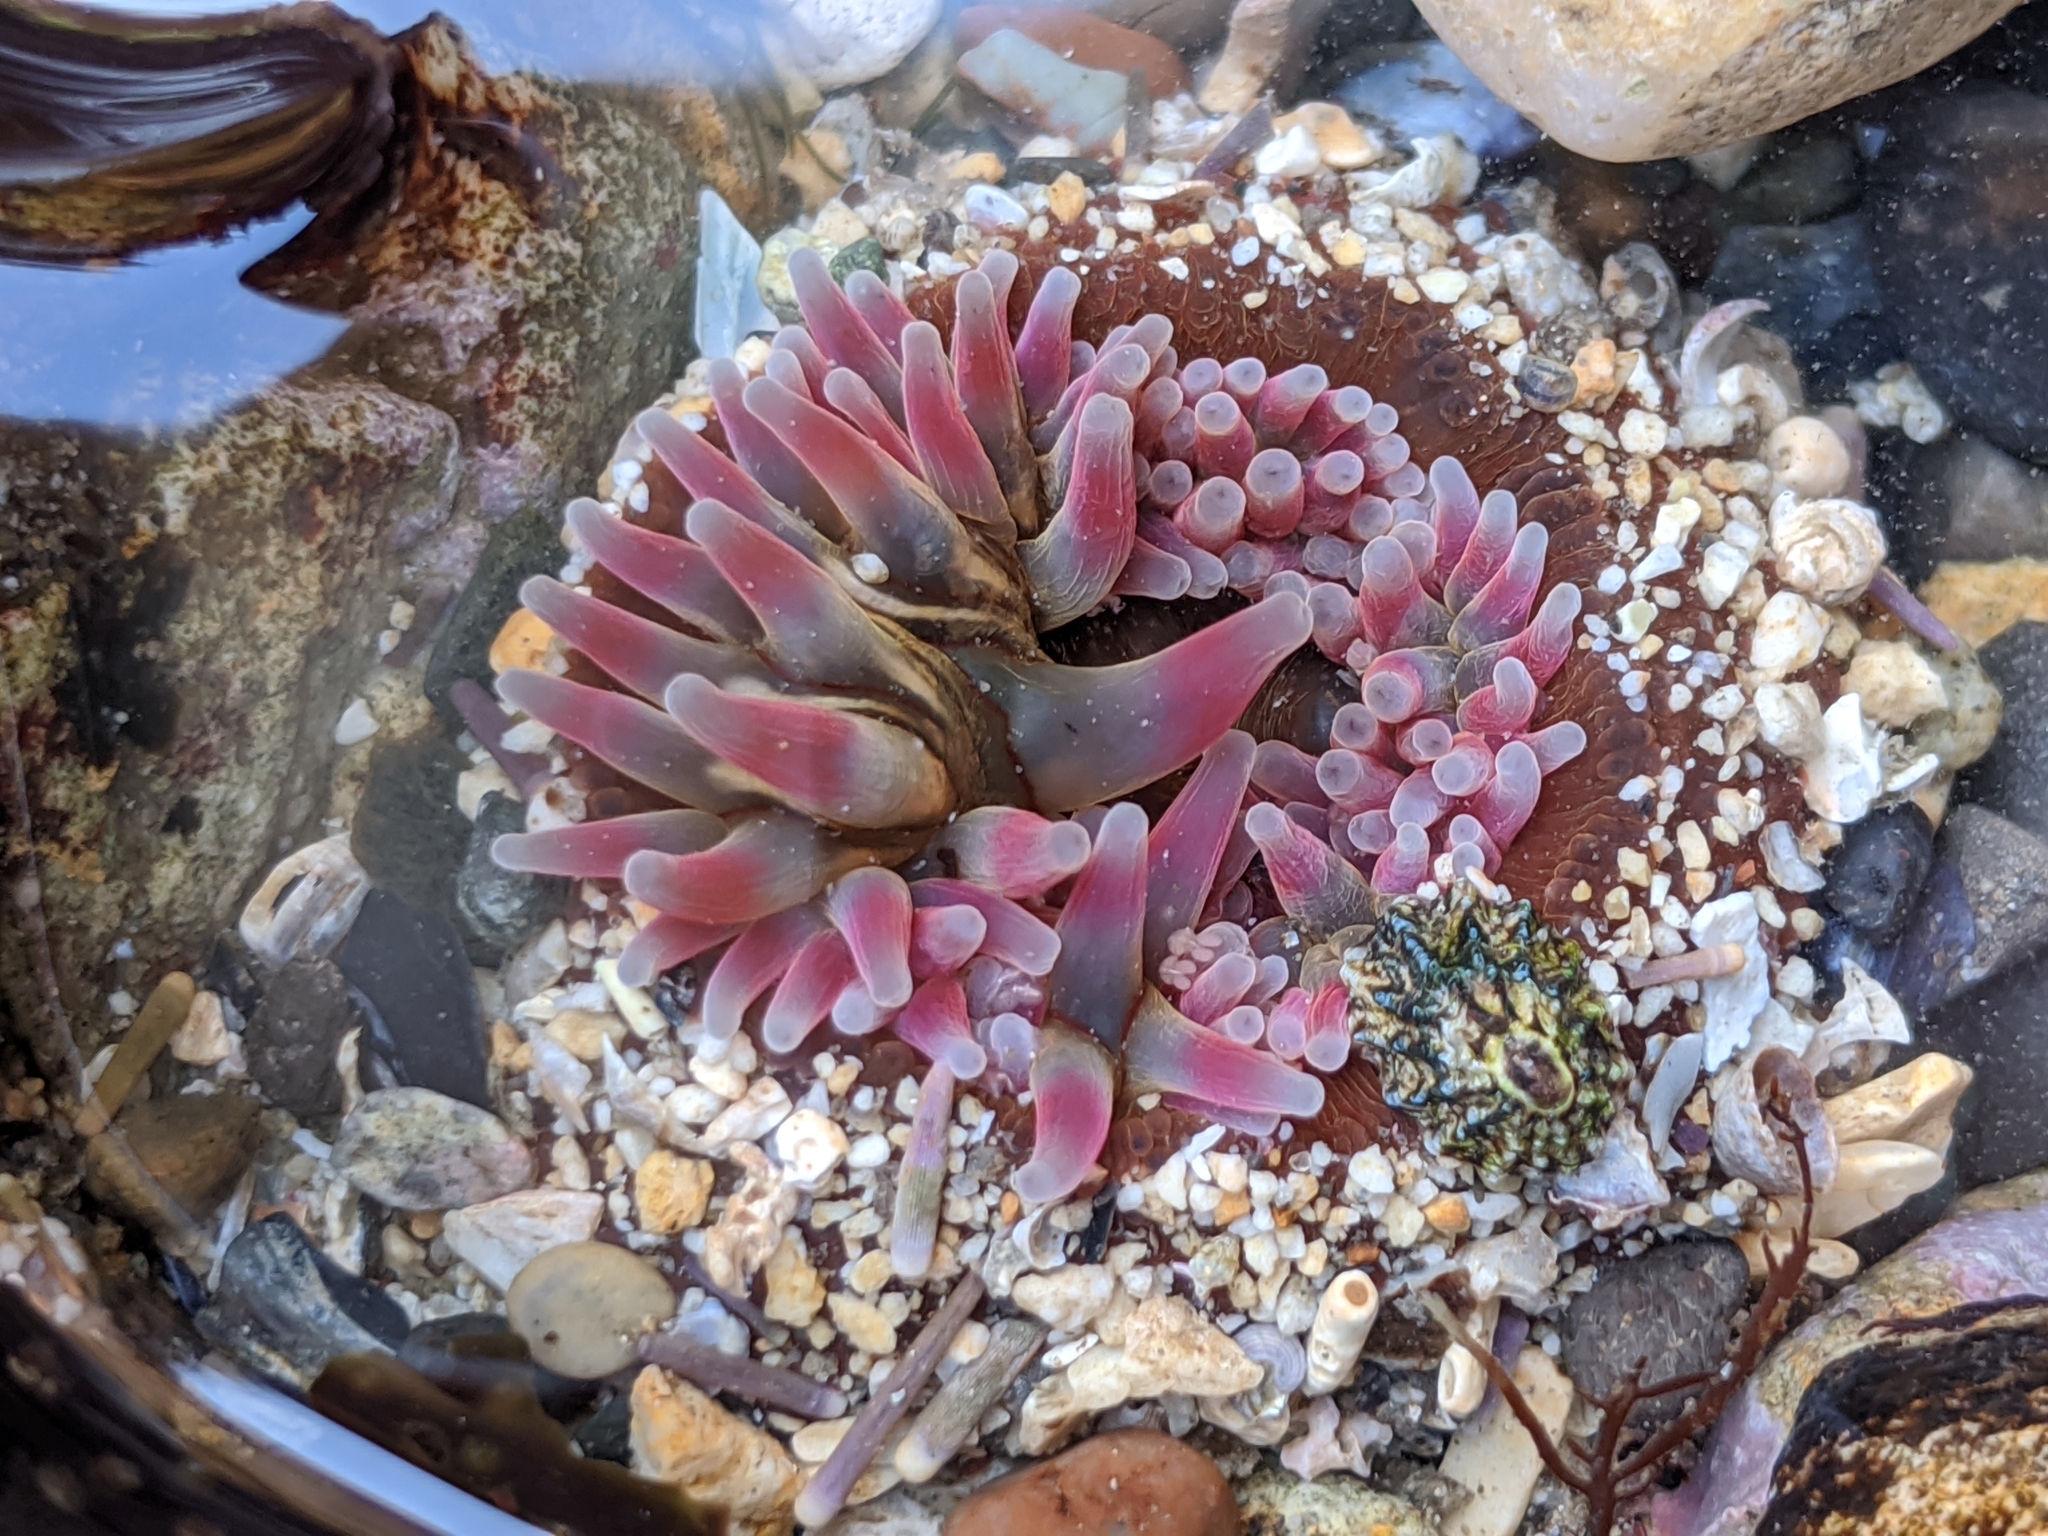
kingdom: Animalia
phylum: Cnidaria
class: Anthozoa
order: Actiniaria
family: Actiniidae
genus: Urticina
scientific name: Urticina clandestina
